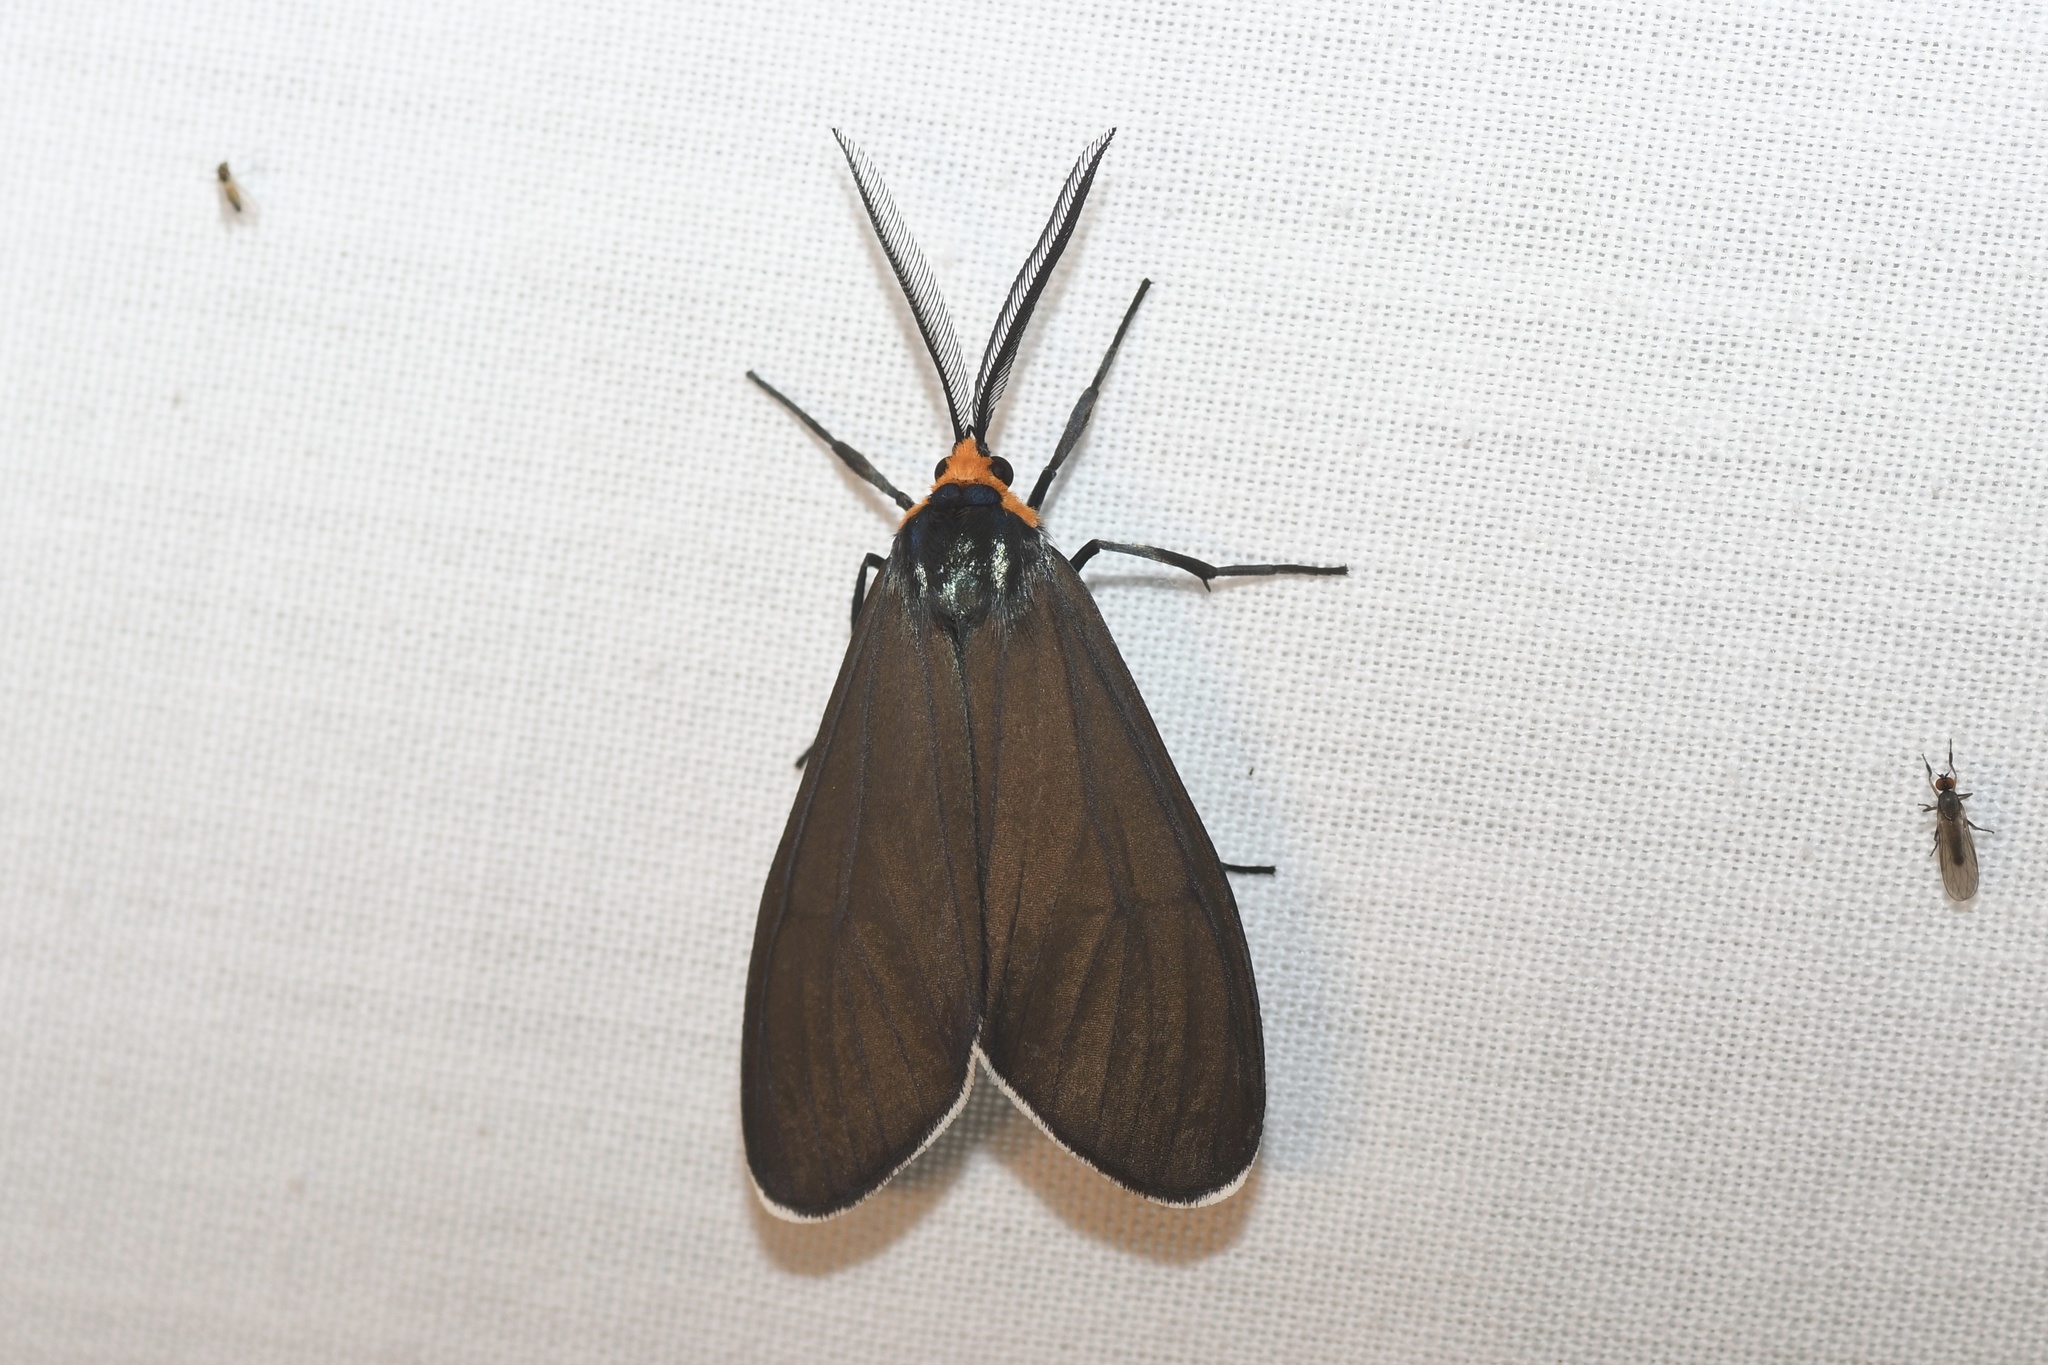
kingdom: Animalia
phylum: Arthropoda
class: Insecta
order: Lepidoptera
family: Erebidae
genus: Ctenucha
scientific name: Ctenucha virginica
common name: Virginia ctenucha moth
